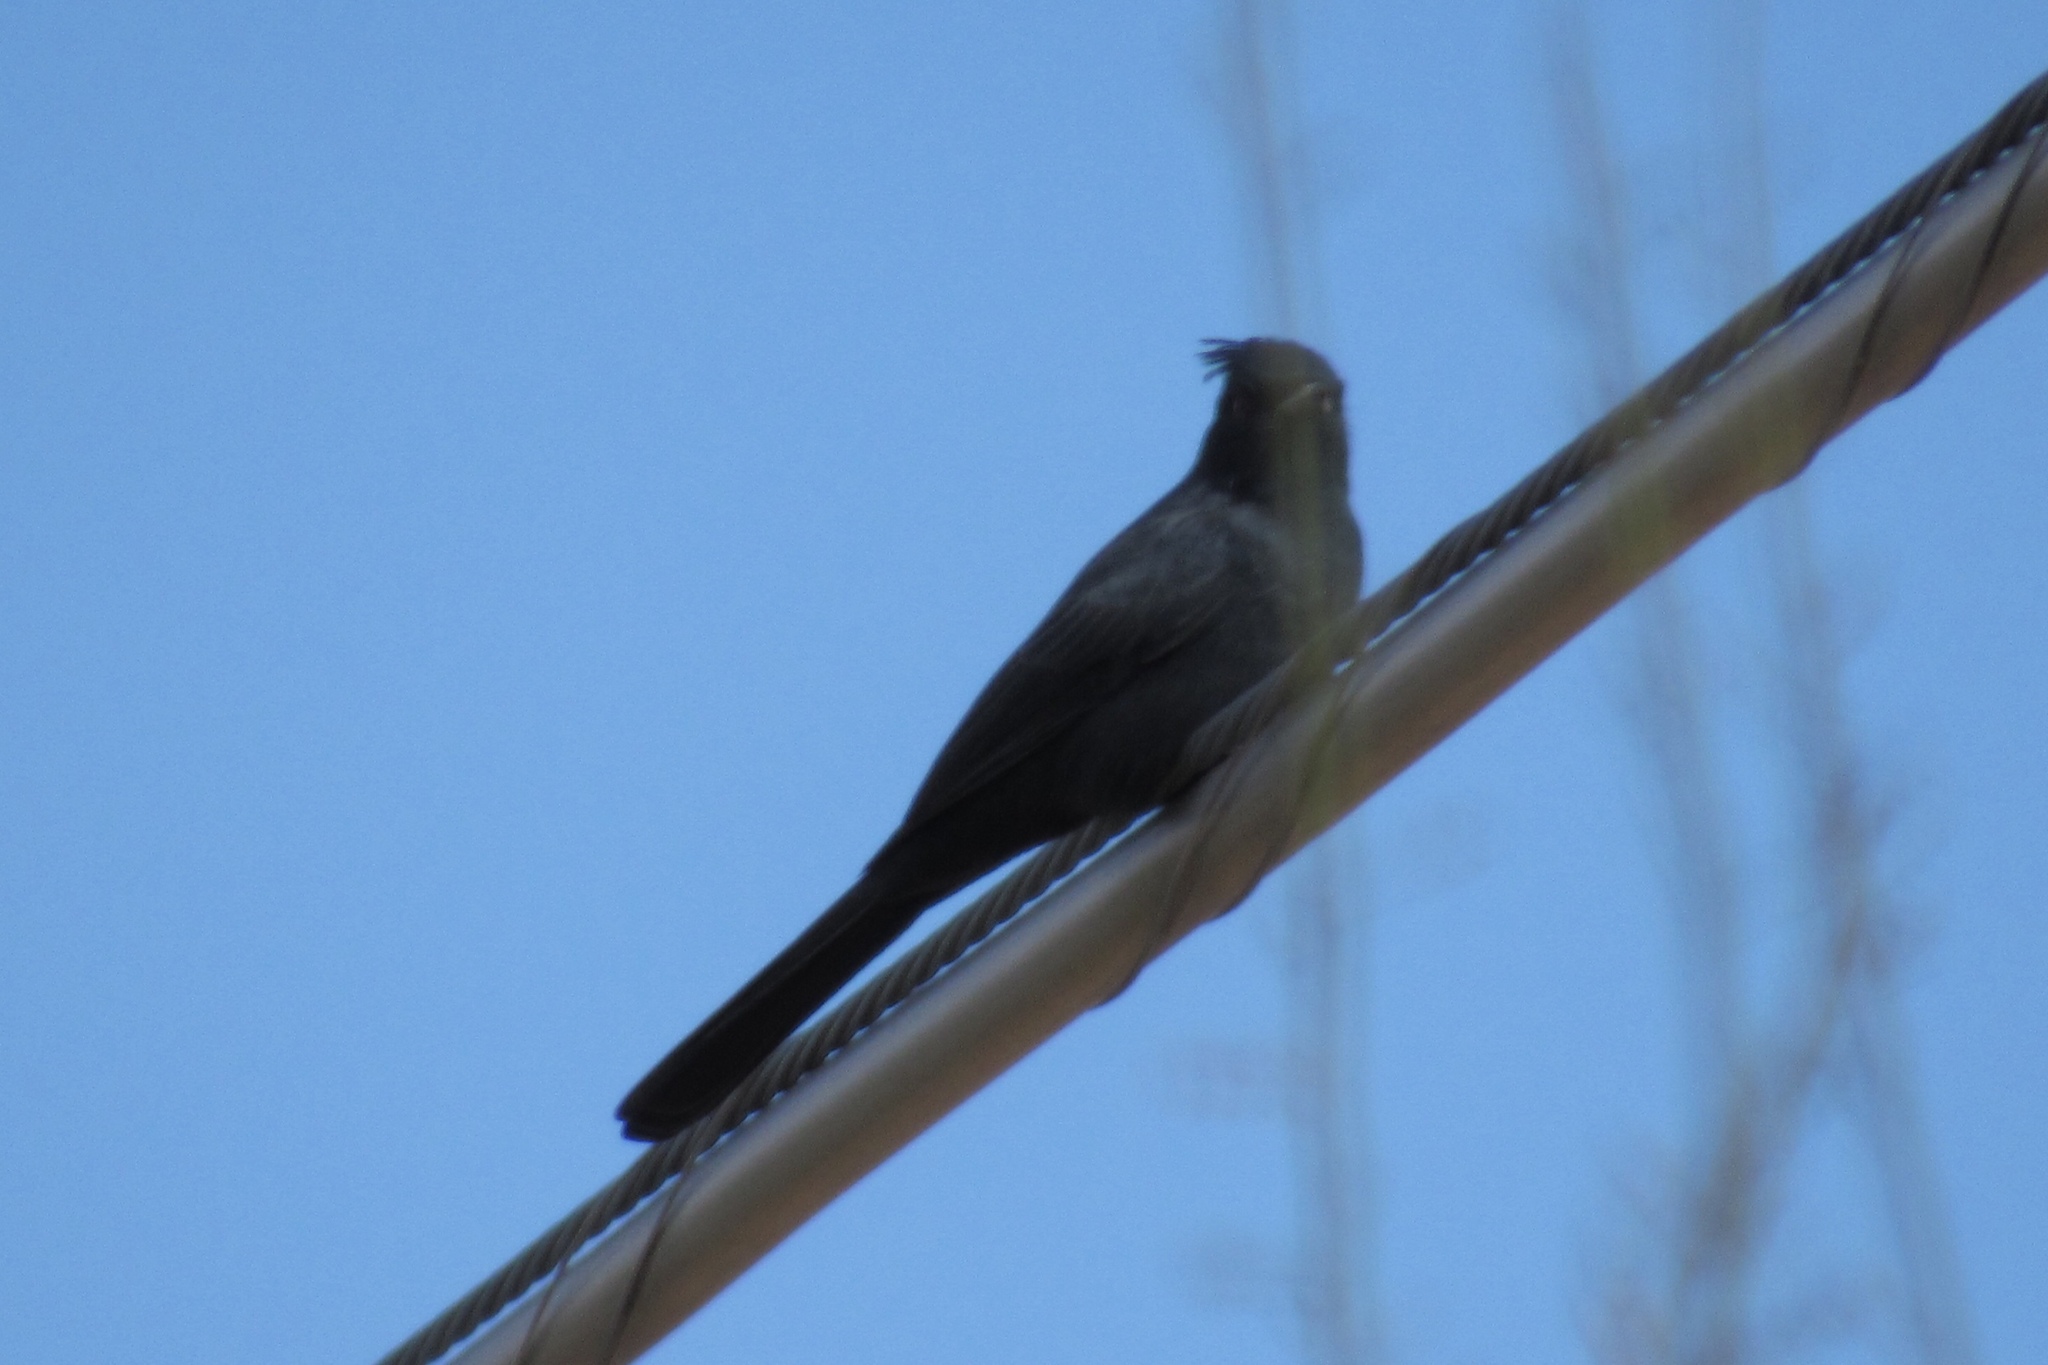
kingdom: Animalia
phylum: Chordata
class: Aves
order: Passeriformes
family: Ptilogonatidae
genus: Phainopepla
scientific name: Phainopepla nitens
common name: Phainopepla
